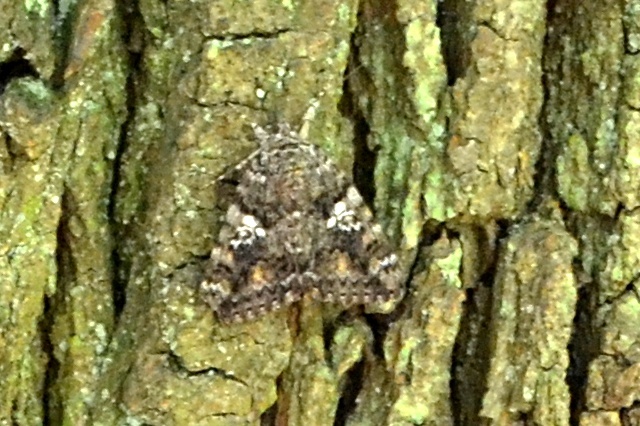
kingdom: Animalia
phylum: Arthropoda
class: Insecta
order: Lepidoptera
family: Erebidae
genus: Catocala
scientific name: Catocala sponsa
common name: Dark crimson underwing
